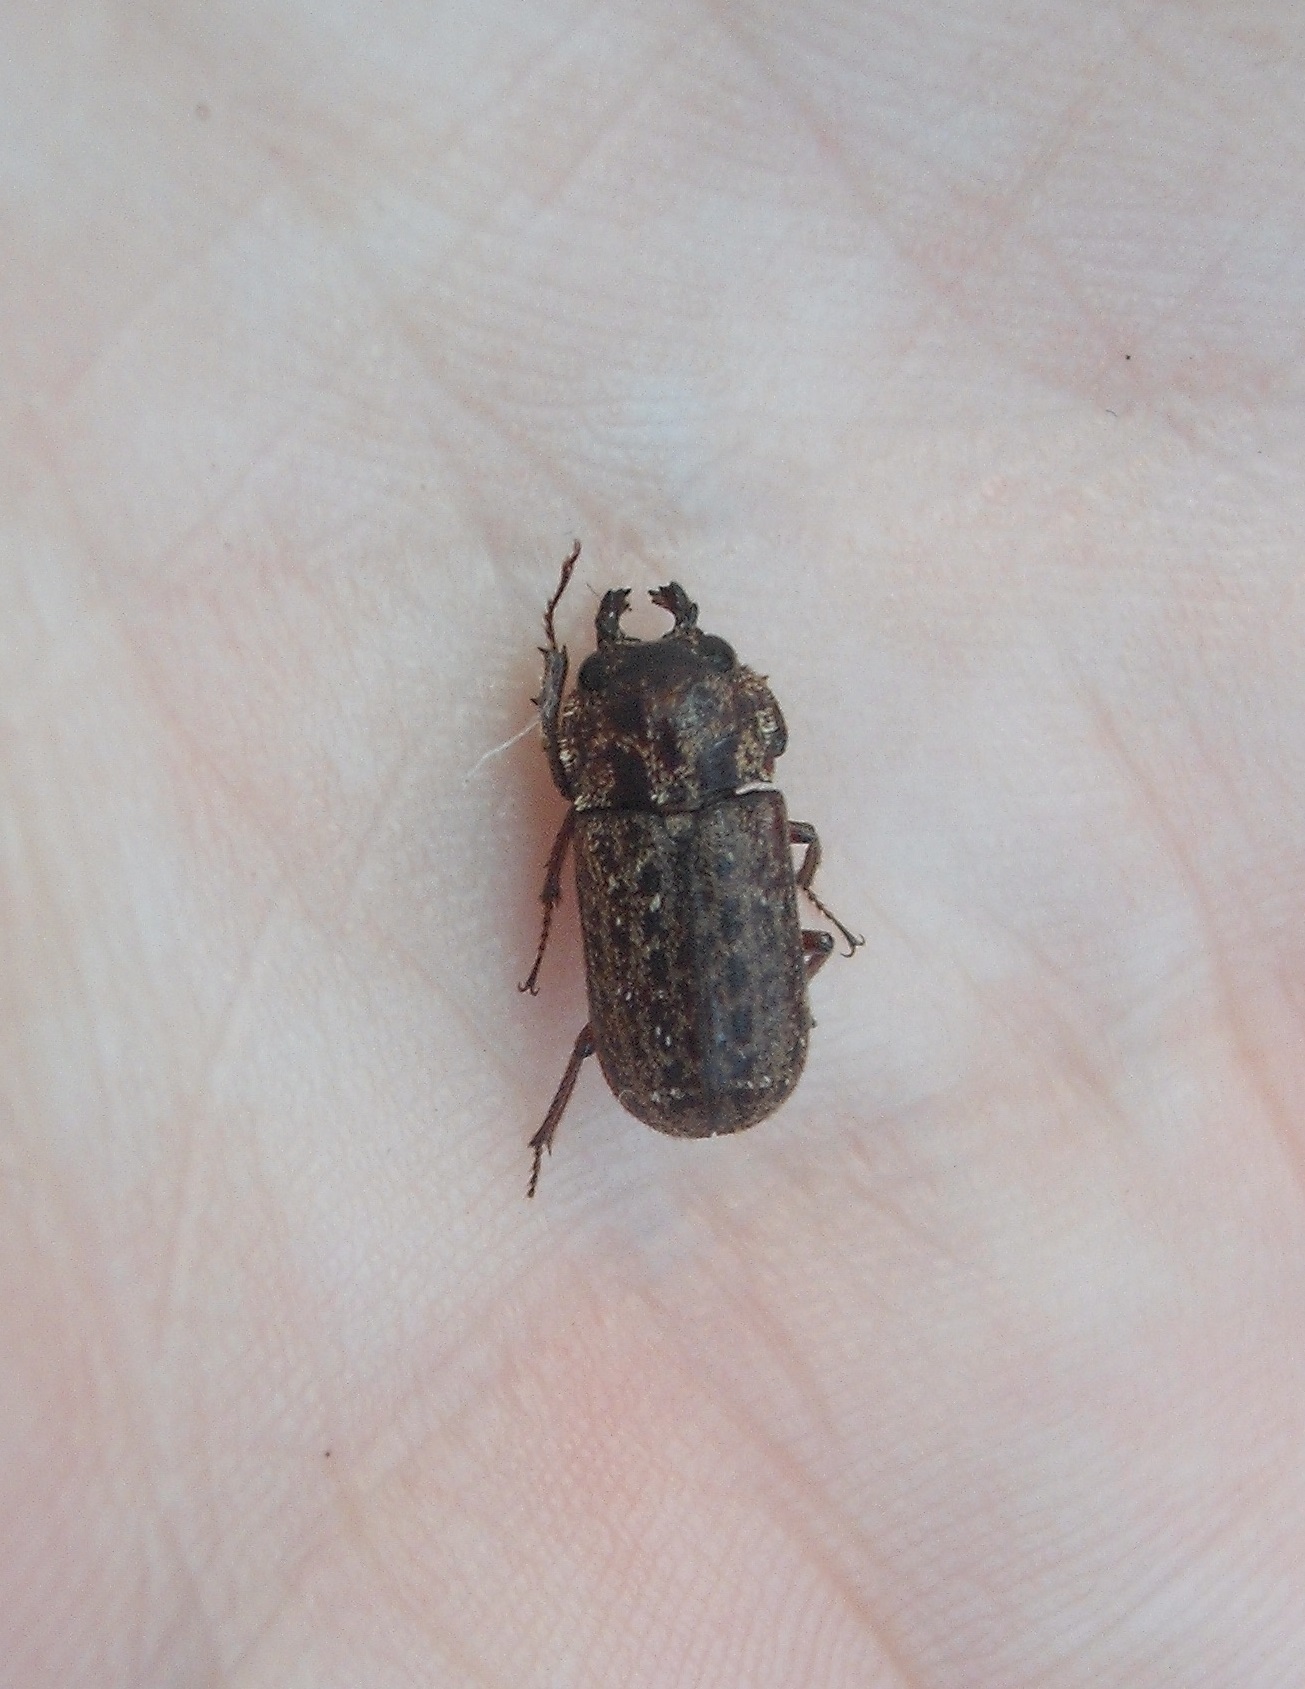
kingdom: Animalia
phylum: Arthropoda
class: Insecta
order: Coleoptera
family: Lucanidae
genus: Mitophyllus
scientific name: Mitophyllus arcuatus
